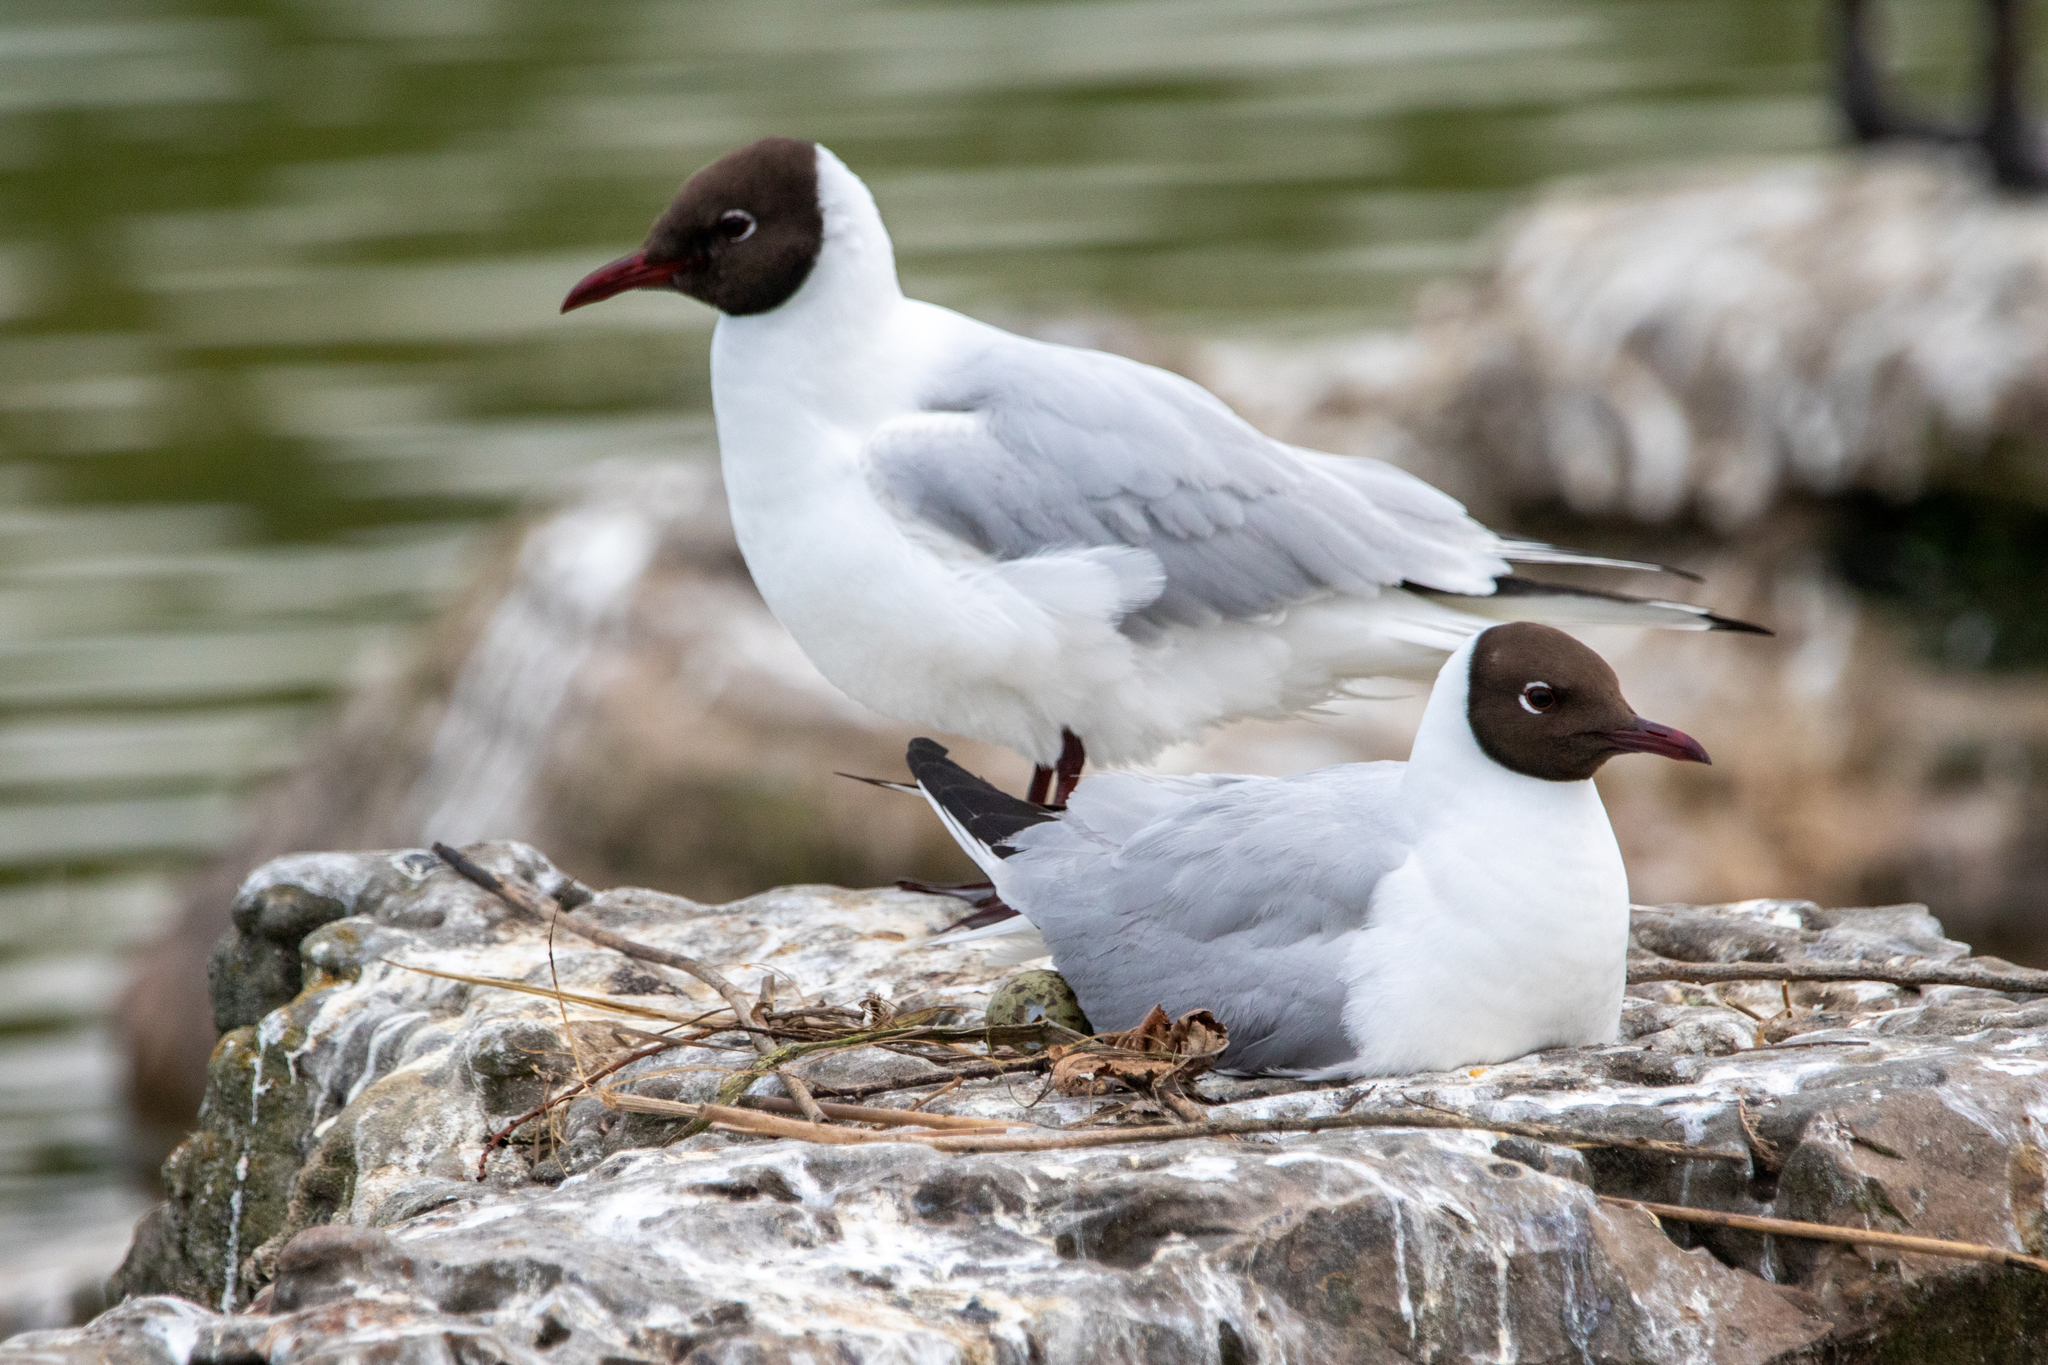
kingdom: Animalia
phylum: Chordata
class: Aves
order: Charadriiformes
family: Laridae
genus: Chroicocephalus
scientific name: Chroicocephalus ridibundus
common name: Black-headed gull
